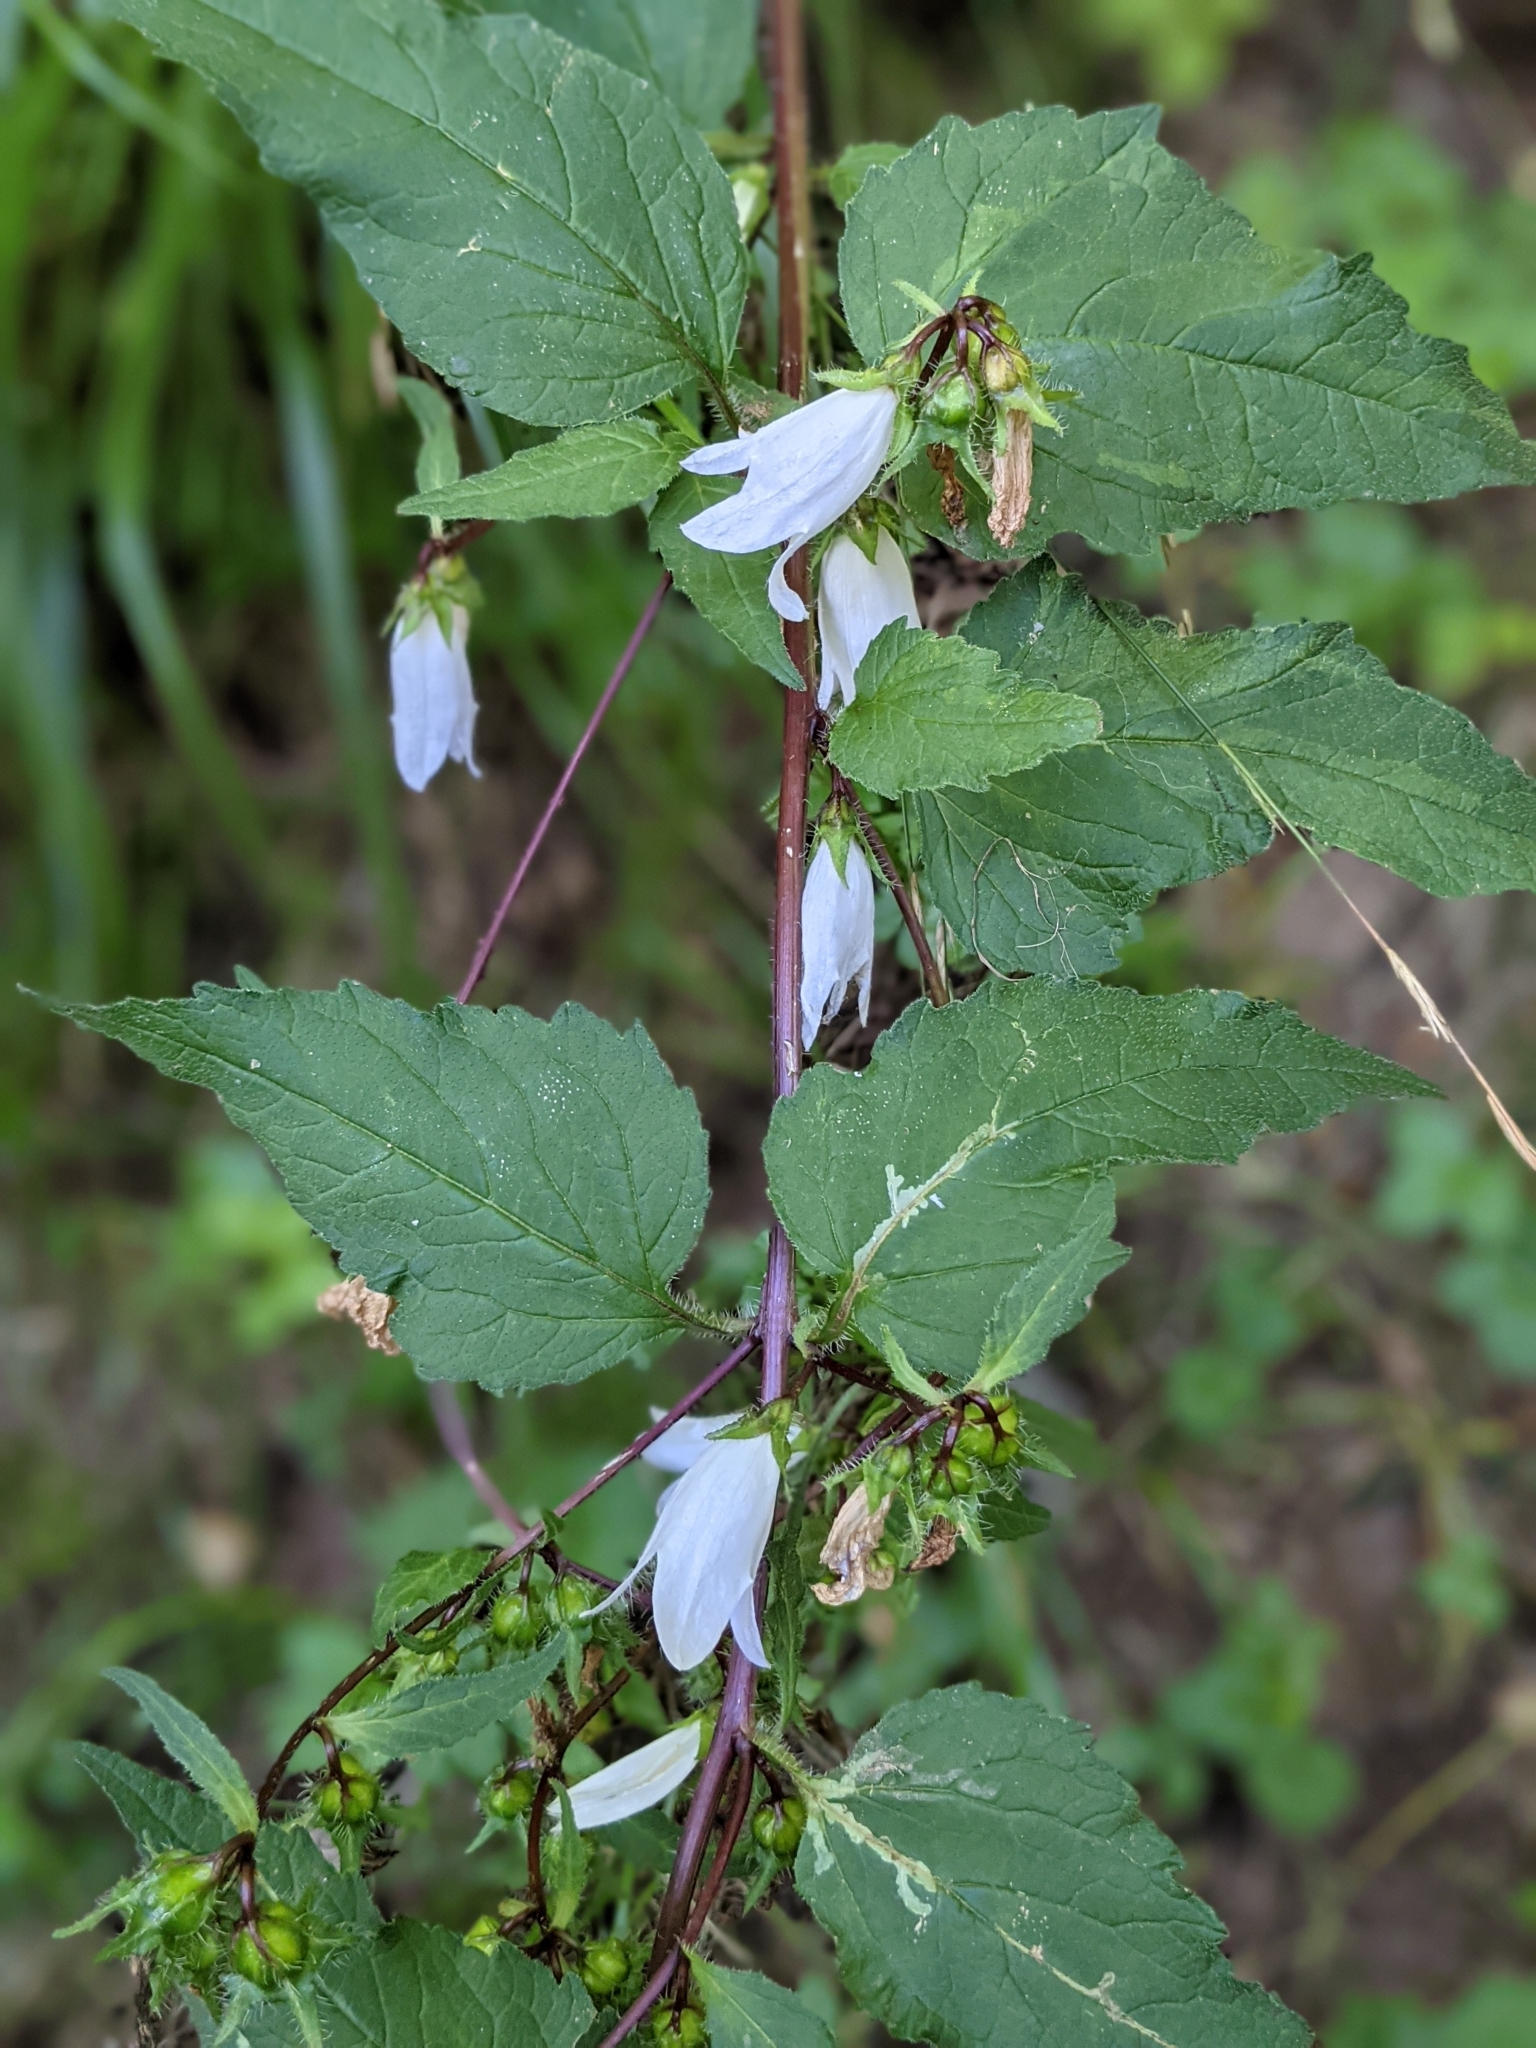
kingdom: Plantae
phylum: Tracheophyta
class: Magnoliopsida
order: Asterales
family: Campanulaceae
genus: Campanula
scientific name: Campanula trachelium
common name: Nettle-leaved bellflower
